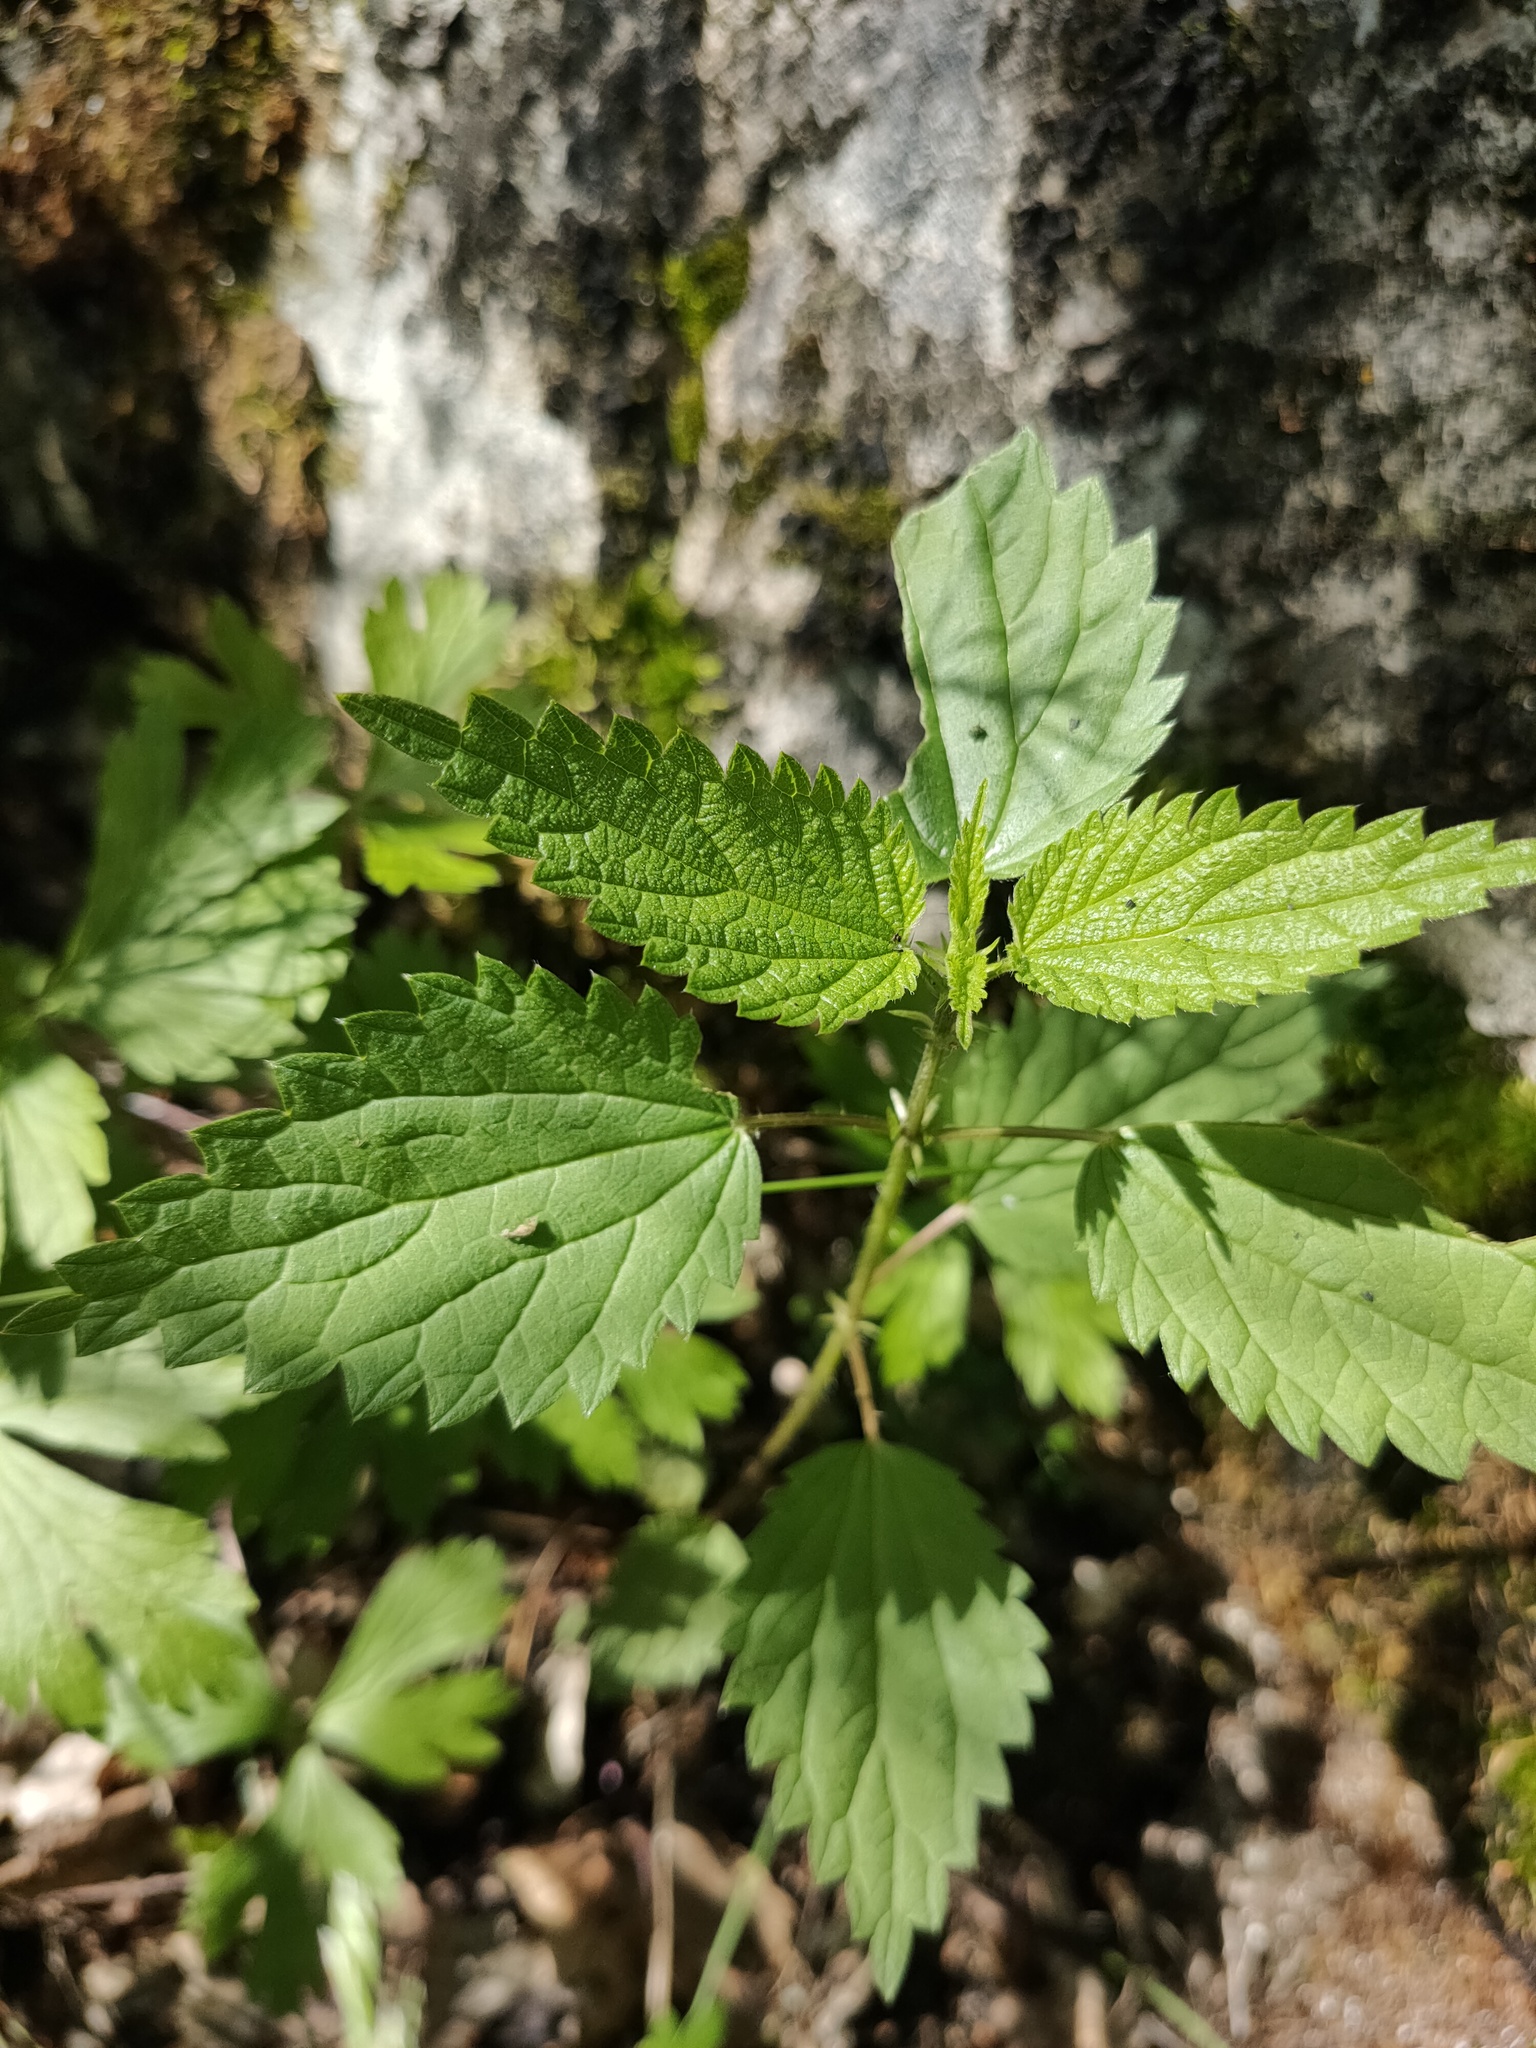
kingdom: Plantae
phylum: Tracheophyta
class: Magnoliopsida
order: Rosales
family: Urticaceae
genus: Urtica
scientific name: Urtica dioica
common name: Common nettle
